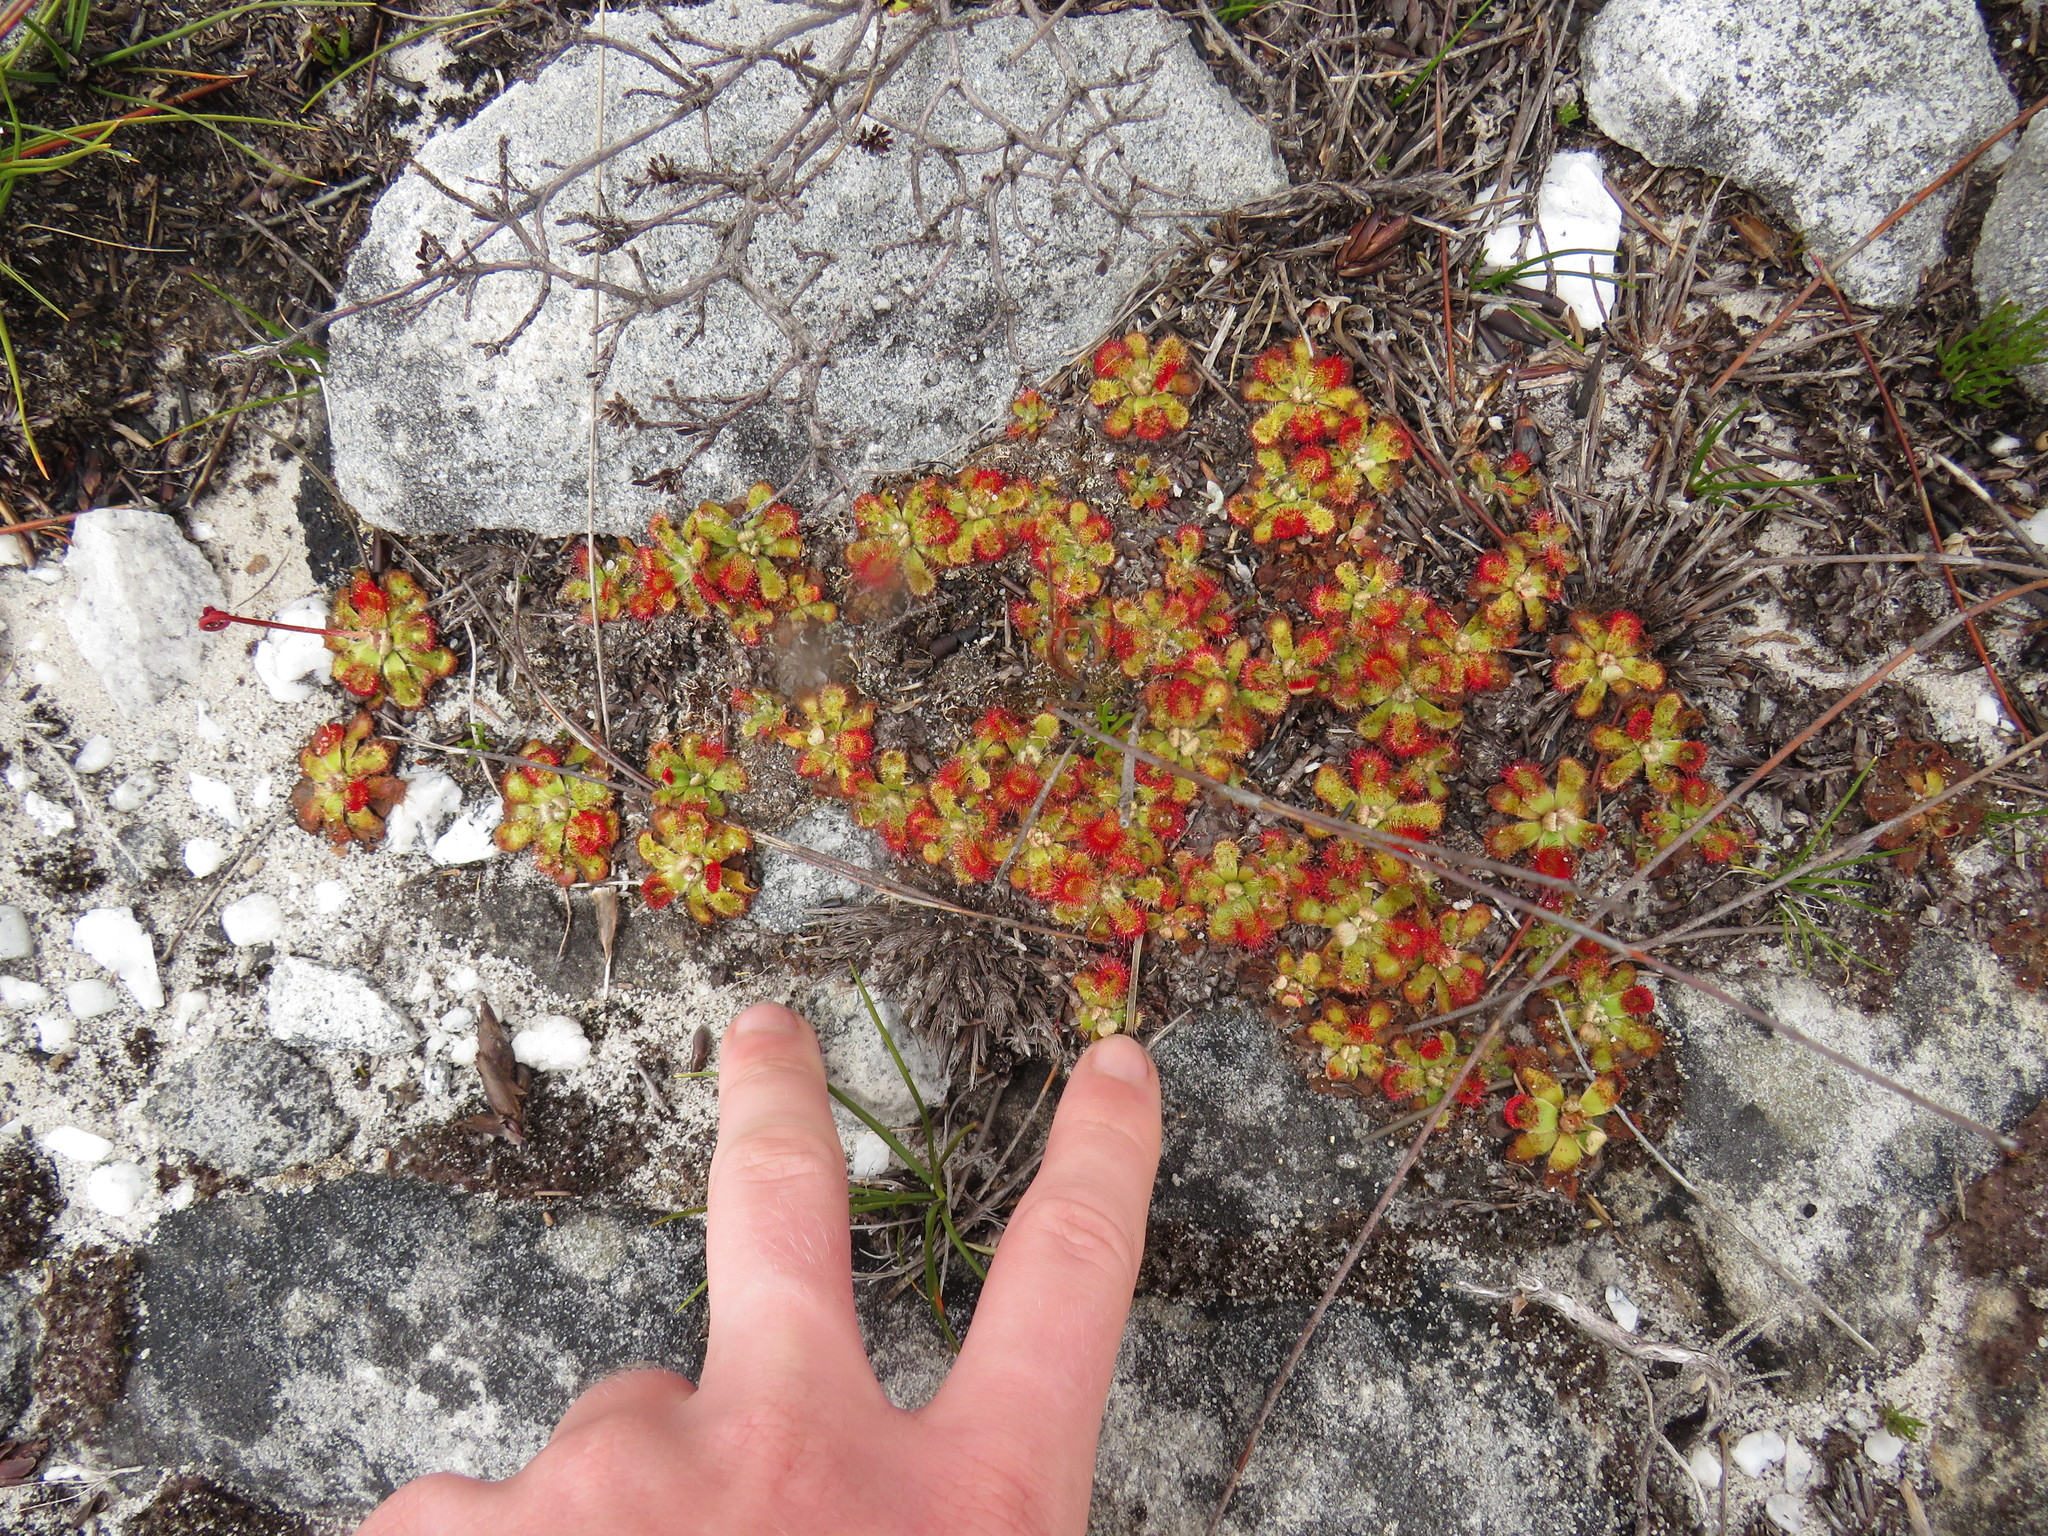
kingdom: Plantae
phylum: Tracheophyta
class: Magnoliopsida
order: Caryophyllales
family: Droseraceae
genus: Drosera
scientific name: Drosera aliciae
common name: Alice sundew
